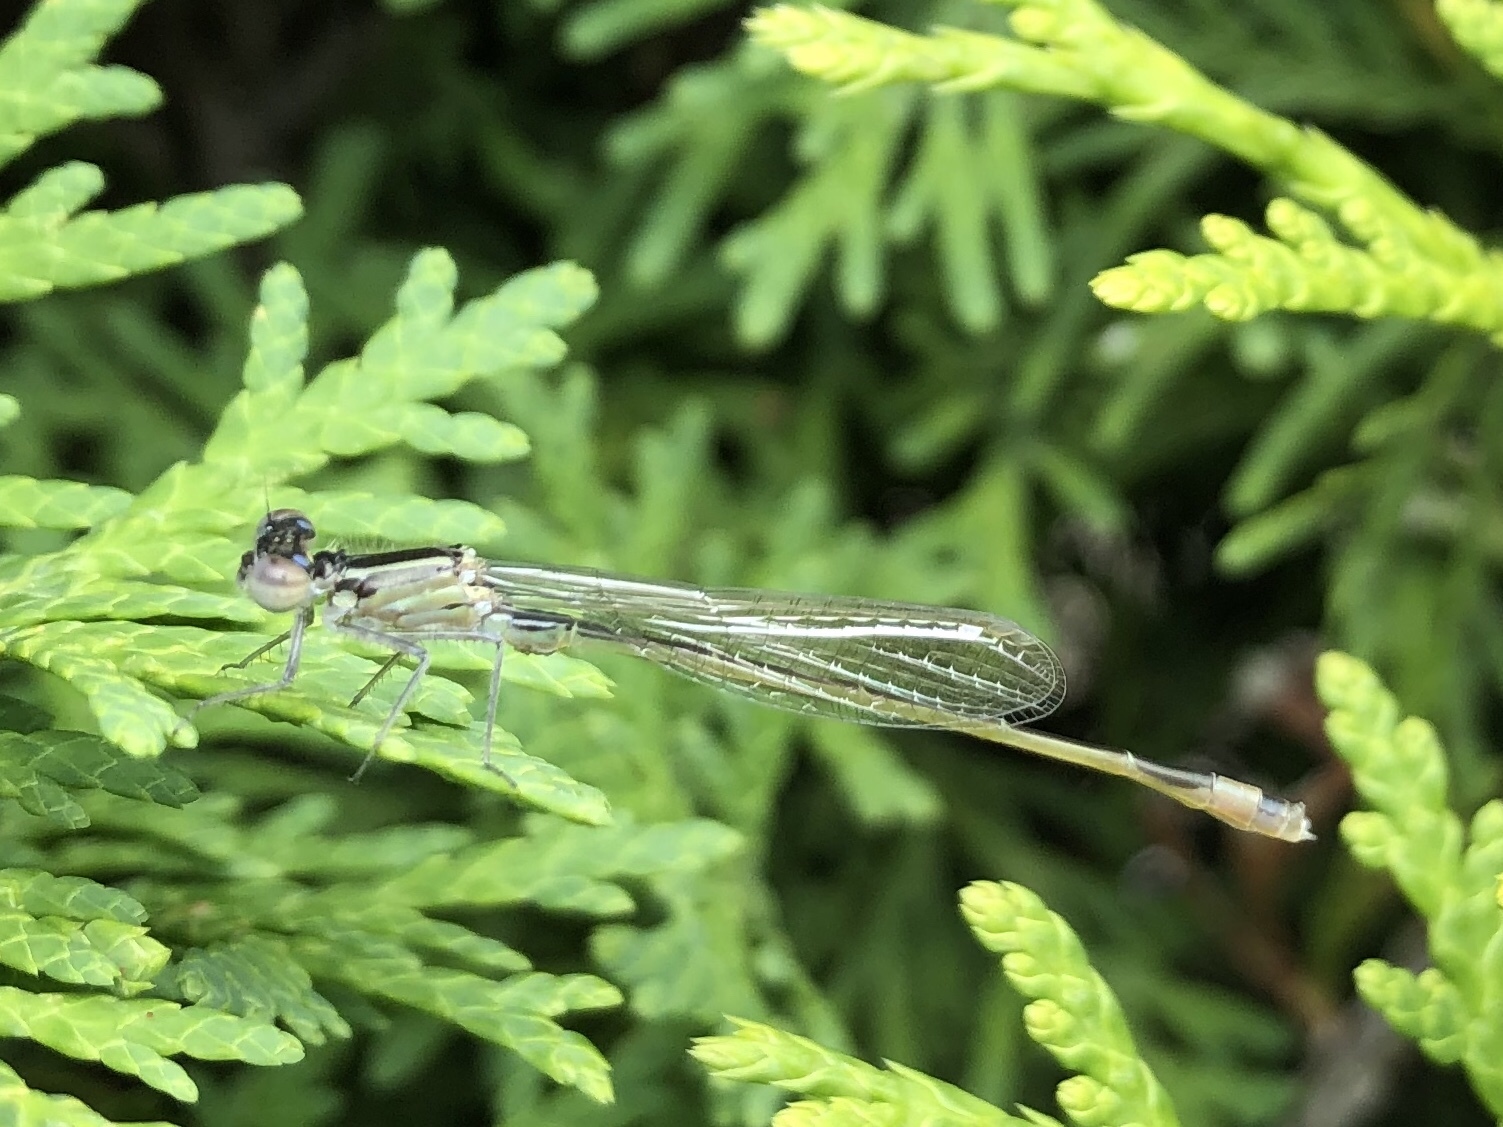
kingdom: Animalia
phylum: Arthropoda
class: Insecta
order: Odonata
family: Coenagrionidae
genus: Ischnura
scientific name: Ischnura elegans
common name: Blue-tailed damselfly
